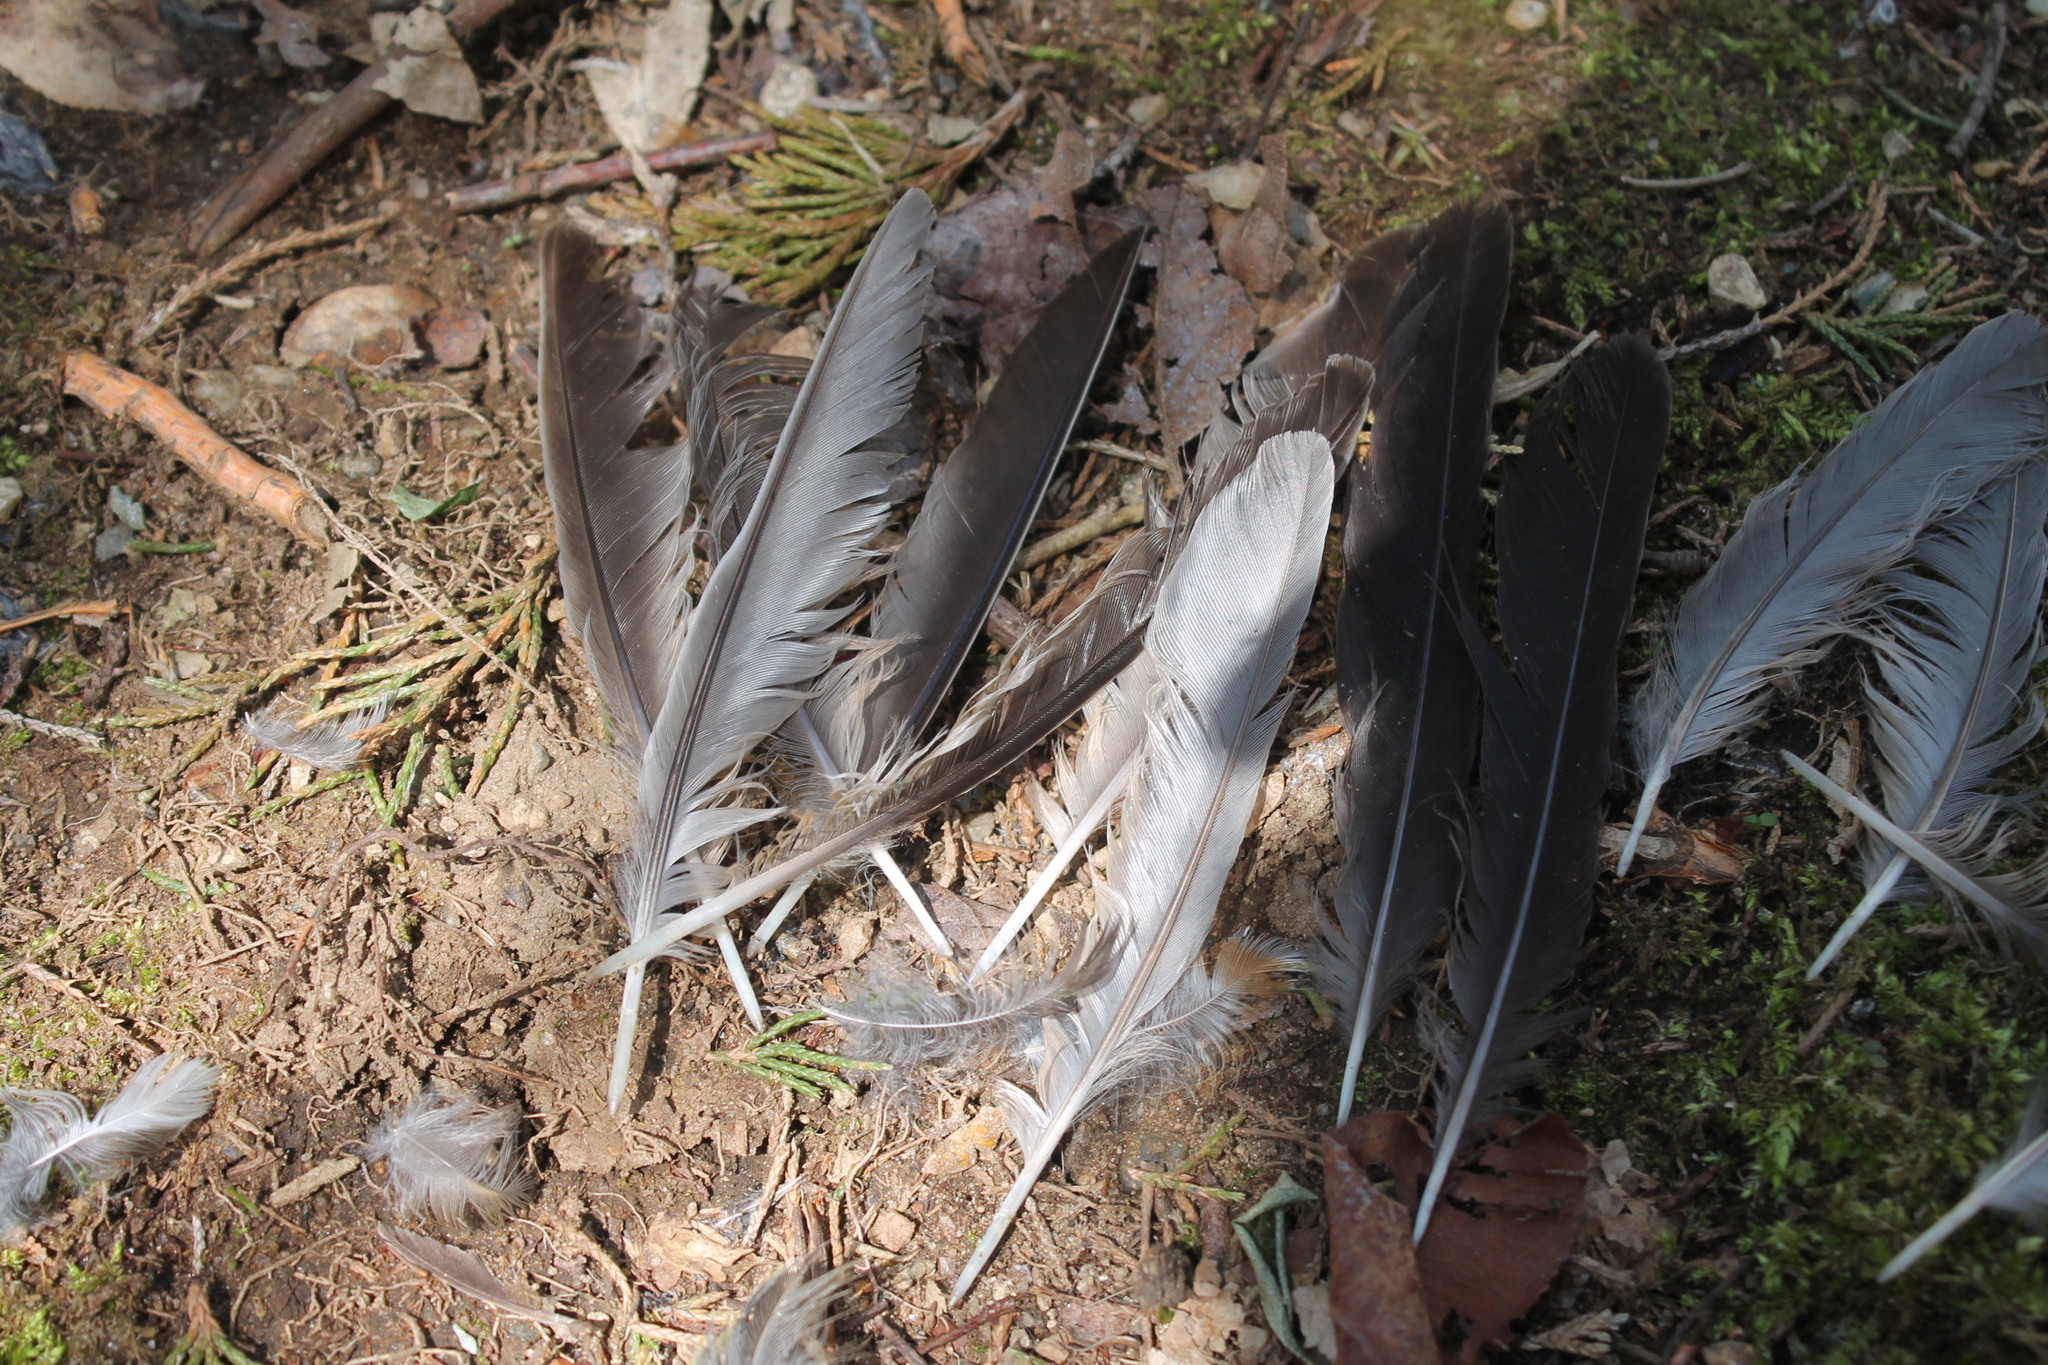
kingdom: Animalia
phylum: Chordata
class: Aves
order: Passeriformes
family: Turdidae
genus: Turdus
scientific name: Turdus migratorius
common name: American robin
